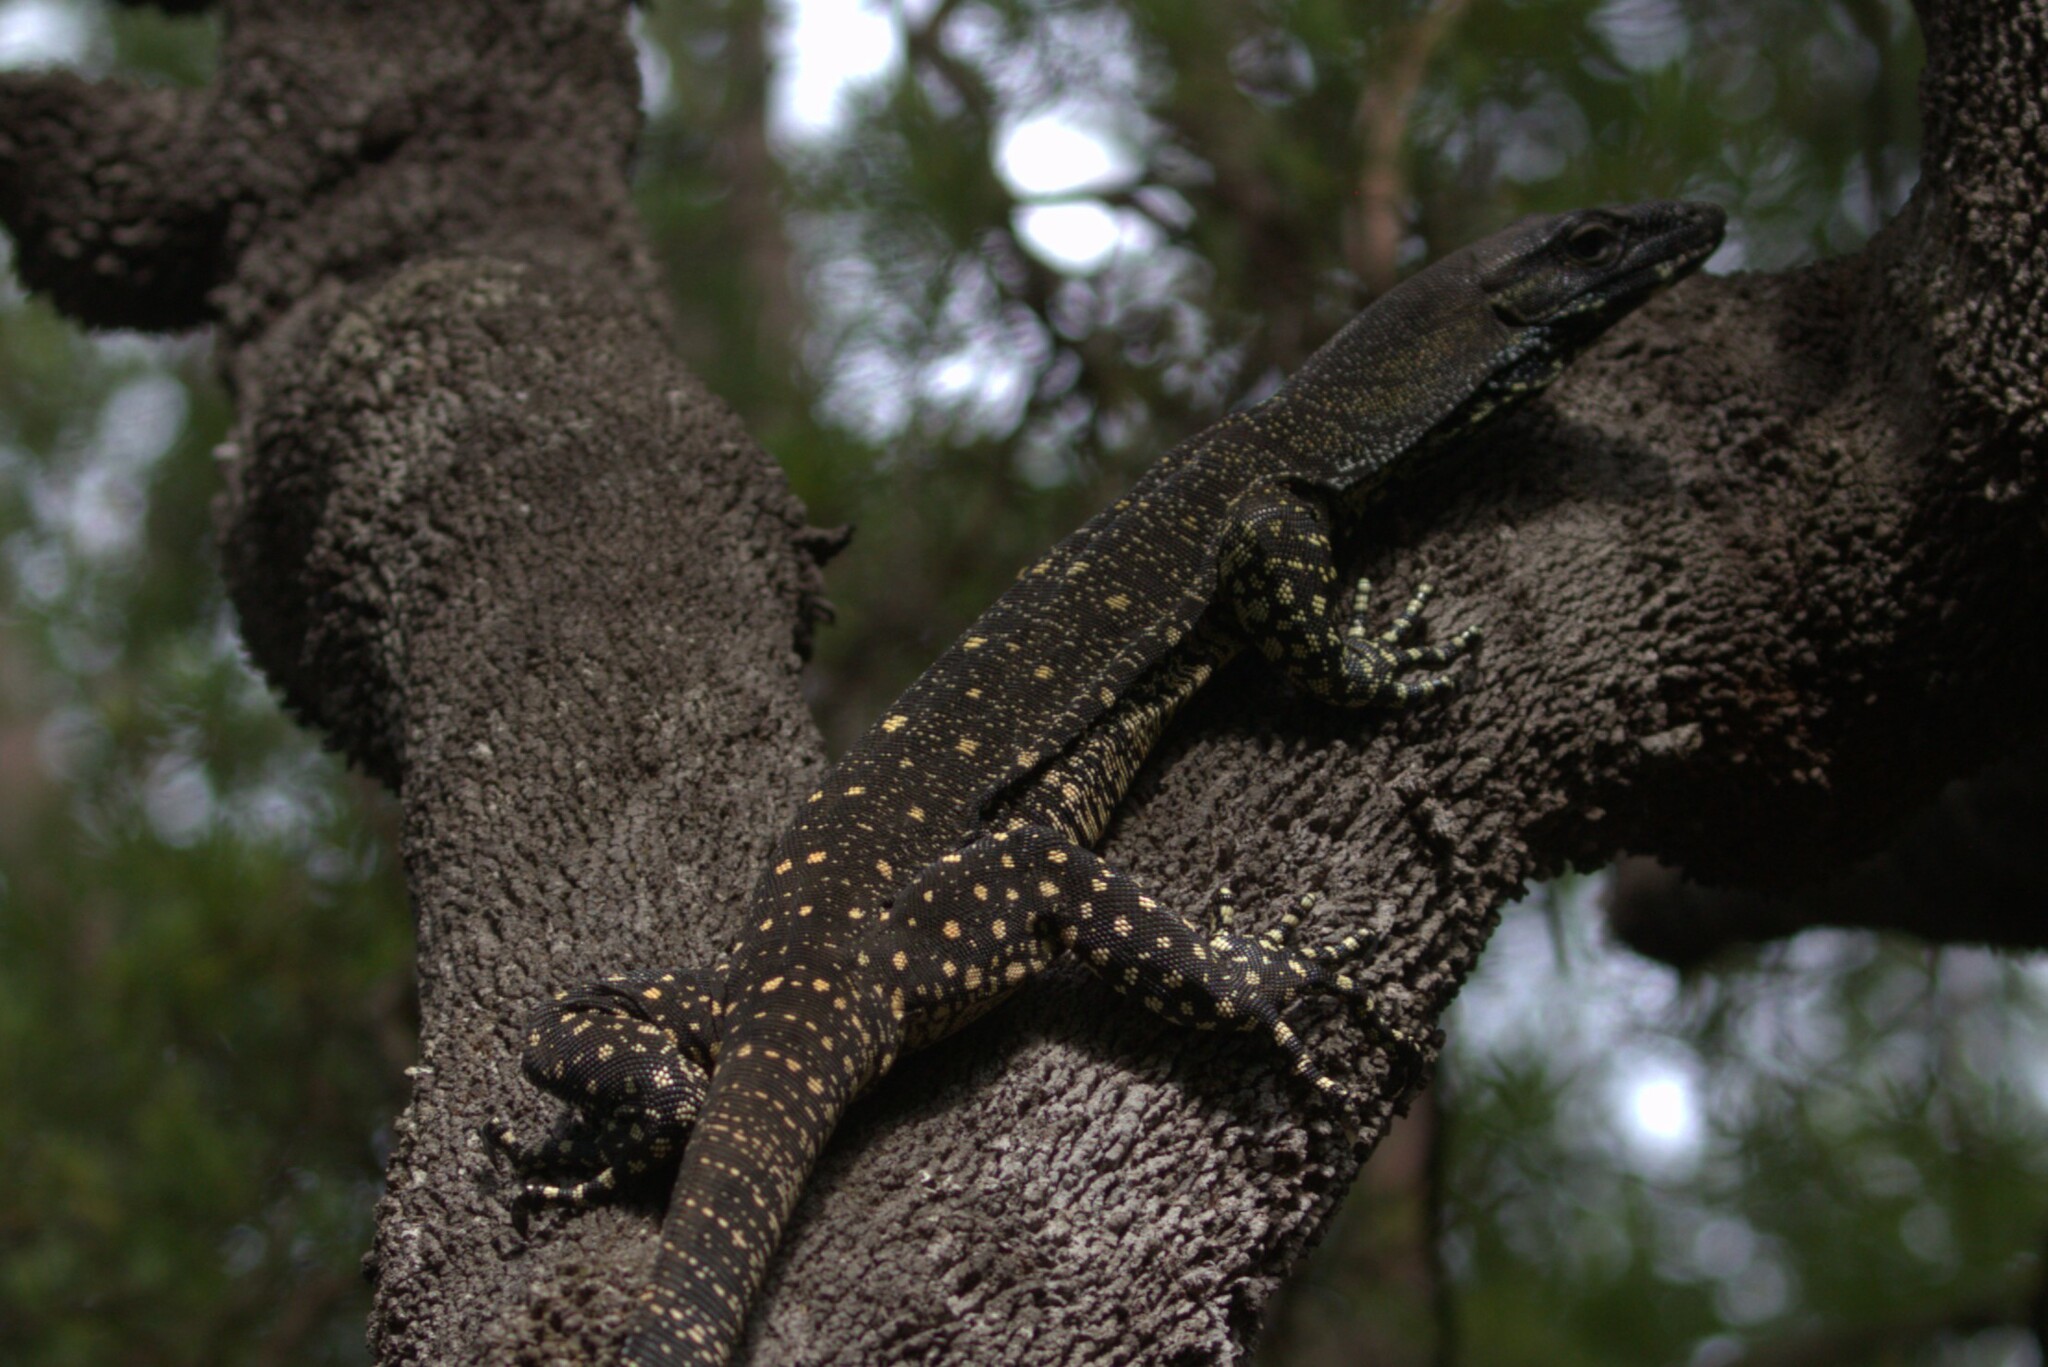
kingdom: Animalia
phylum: Chordata
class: Squamata
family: Varanidae
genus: Varanus
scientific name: Varanus varius
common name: Lace monitor
